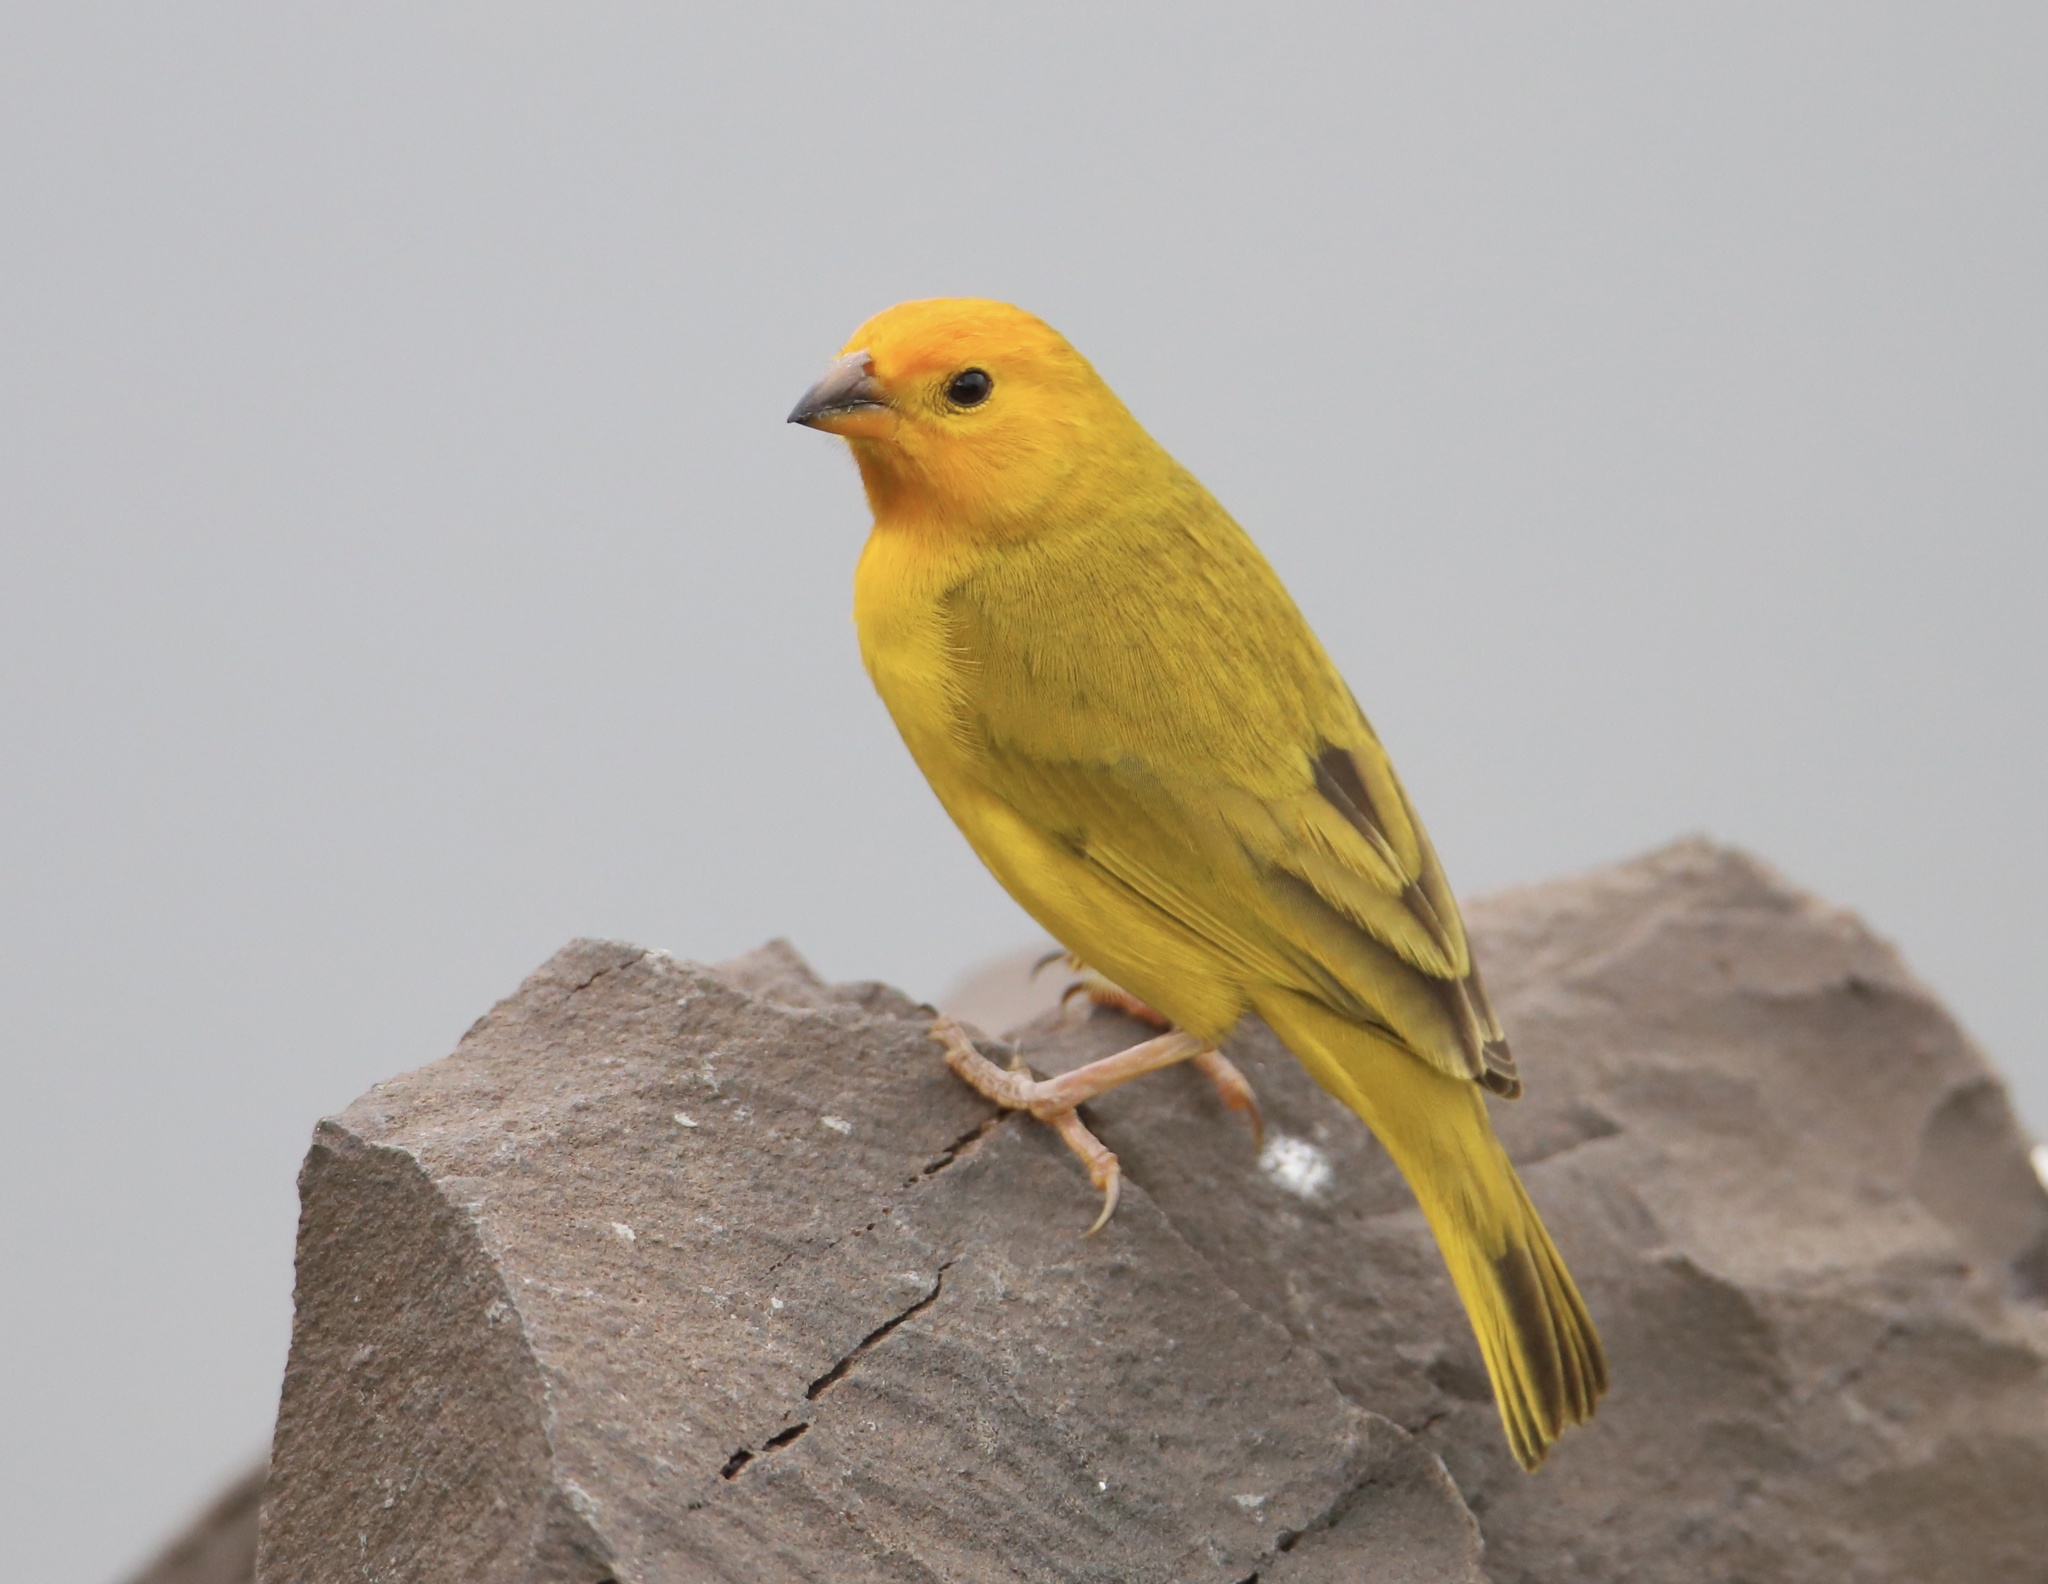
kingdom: Animalia
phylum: Chordata
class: Aves
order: Passeriformes
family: Thraupidae
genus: Sicalis
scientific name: Sicalis flaveola
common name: Saffron finch
